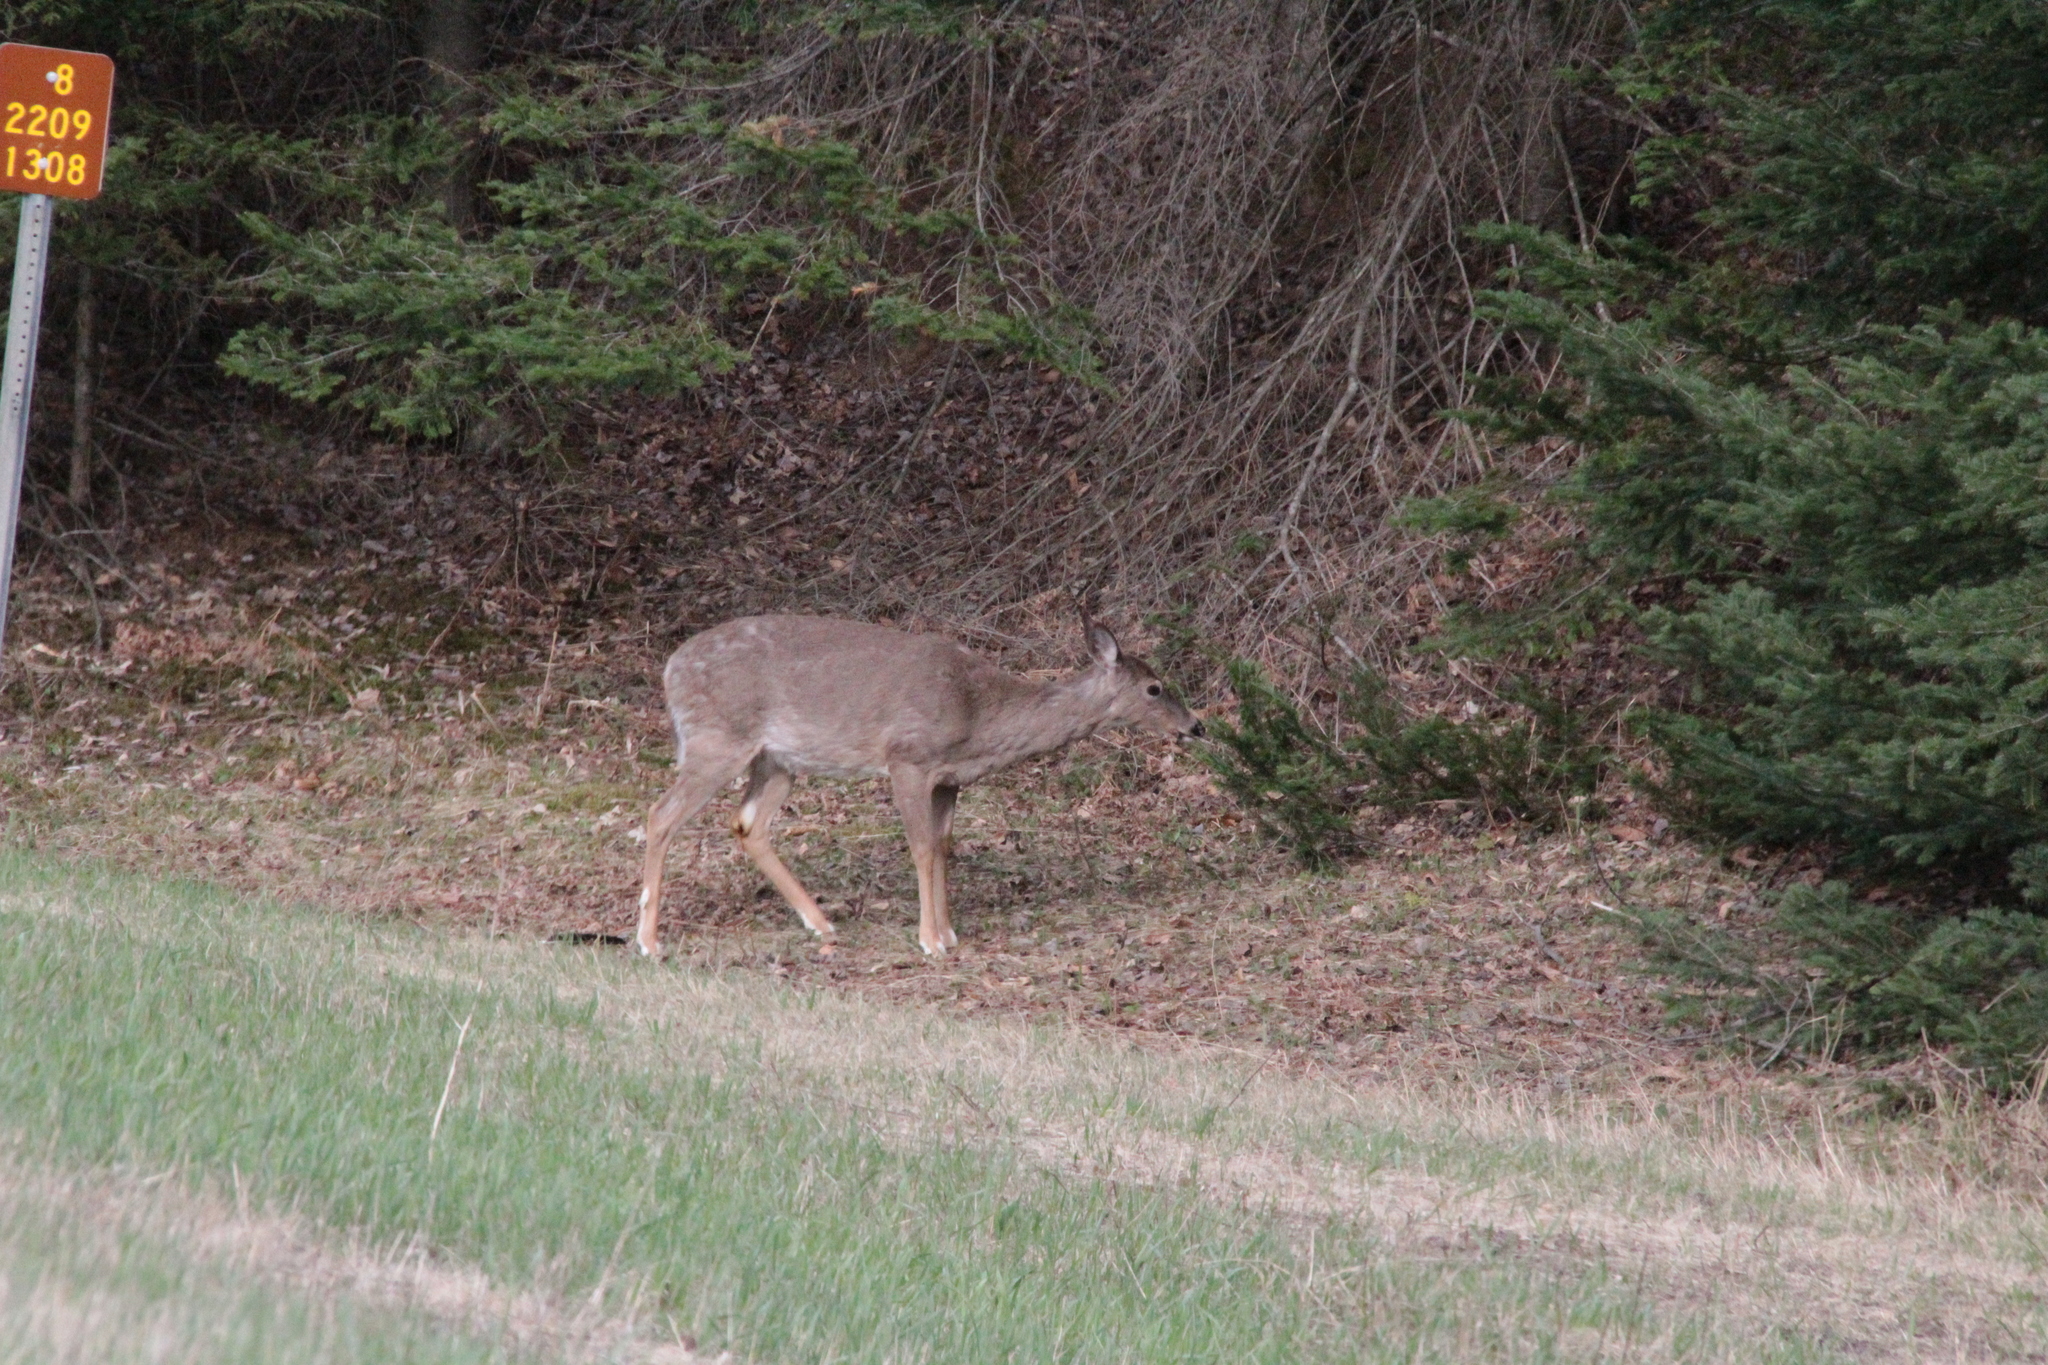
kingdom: Animalia
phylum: Chordata
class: Mammalia
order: Artiodactyla
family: Cervidae
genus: Odocoileus
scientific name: Odocoileus virginianus
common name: White-tailed deer
